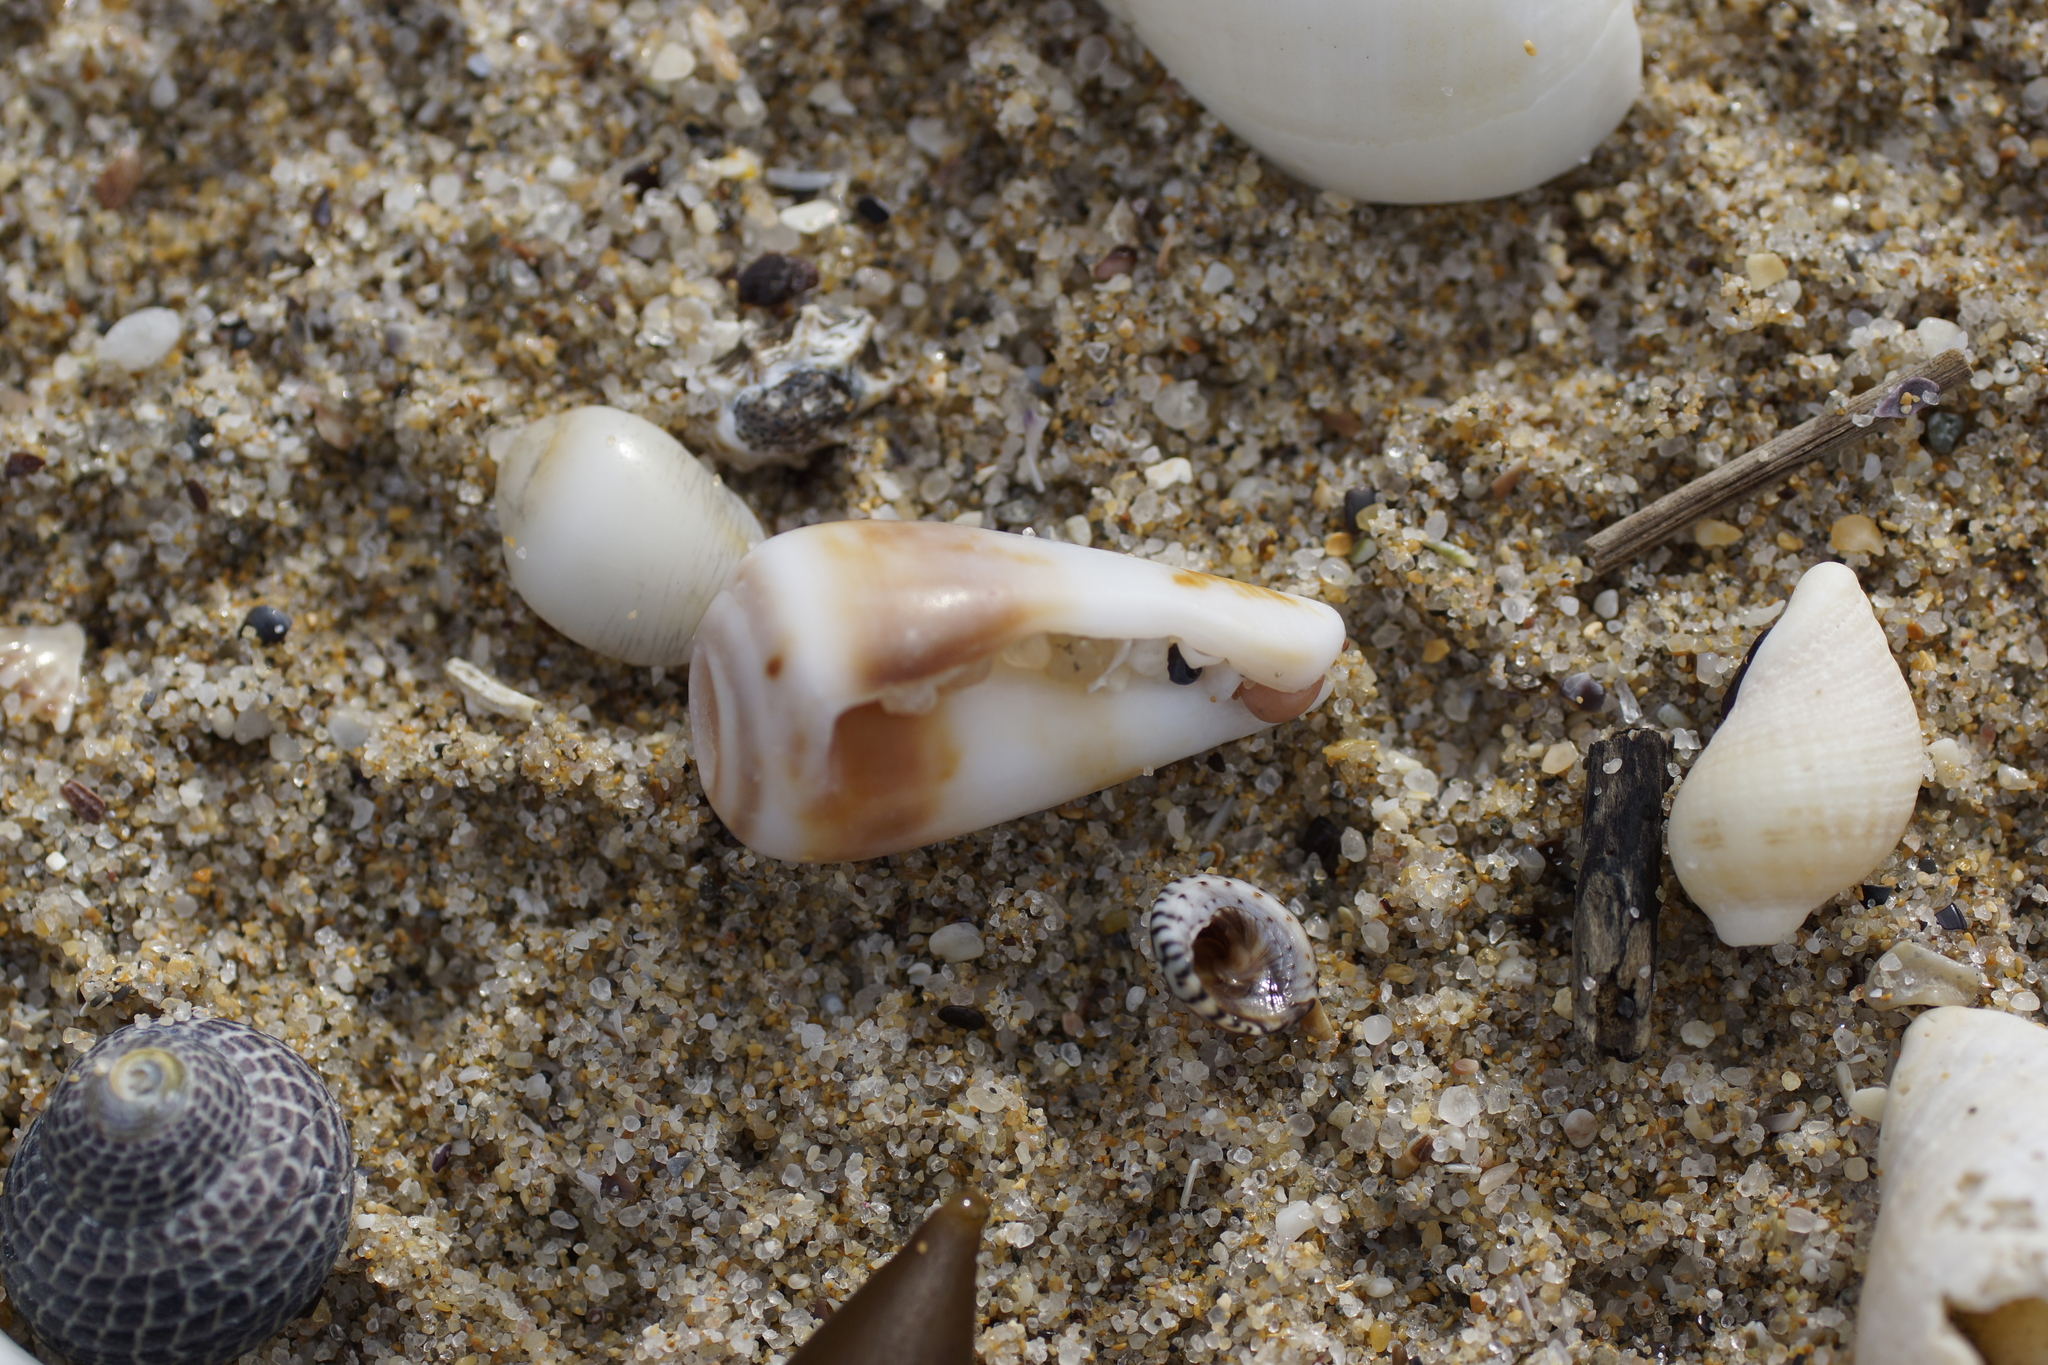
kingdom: Animalia
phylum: Mollusca
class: Gastropoda
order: Neogastropoda
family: Conidae
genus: Conus
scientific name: Conus anemone
